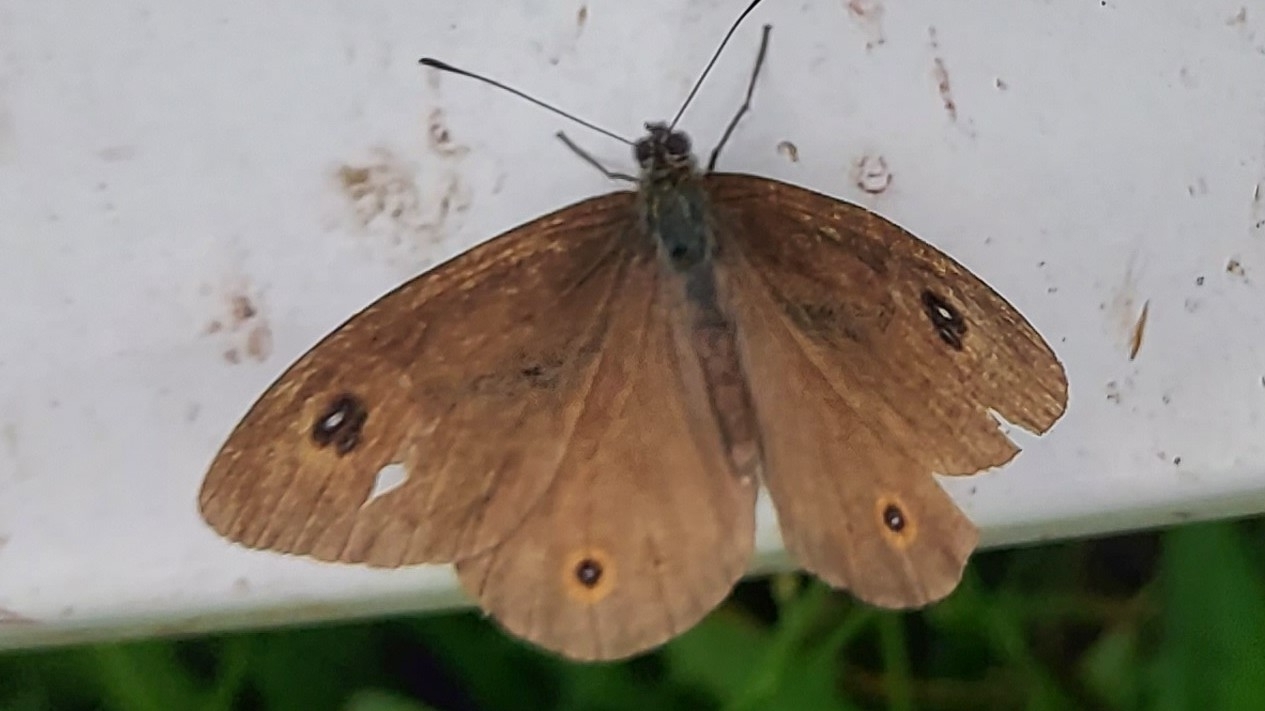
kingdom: Animalia
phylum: Arthropoda
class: Insecta
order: Lepidoptera
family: Nymphalidae
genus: Pararge
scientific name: Pararge Lasiommata maera
